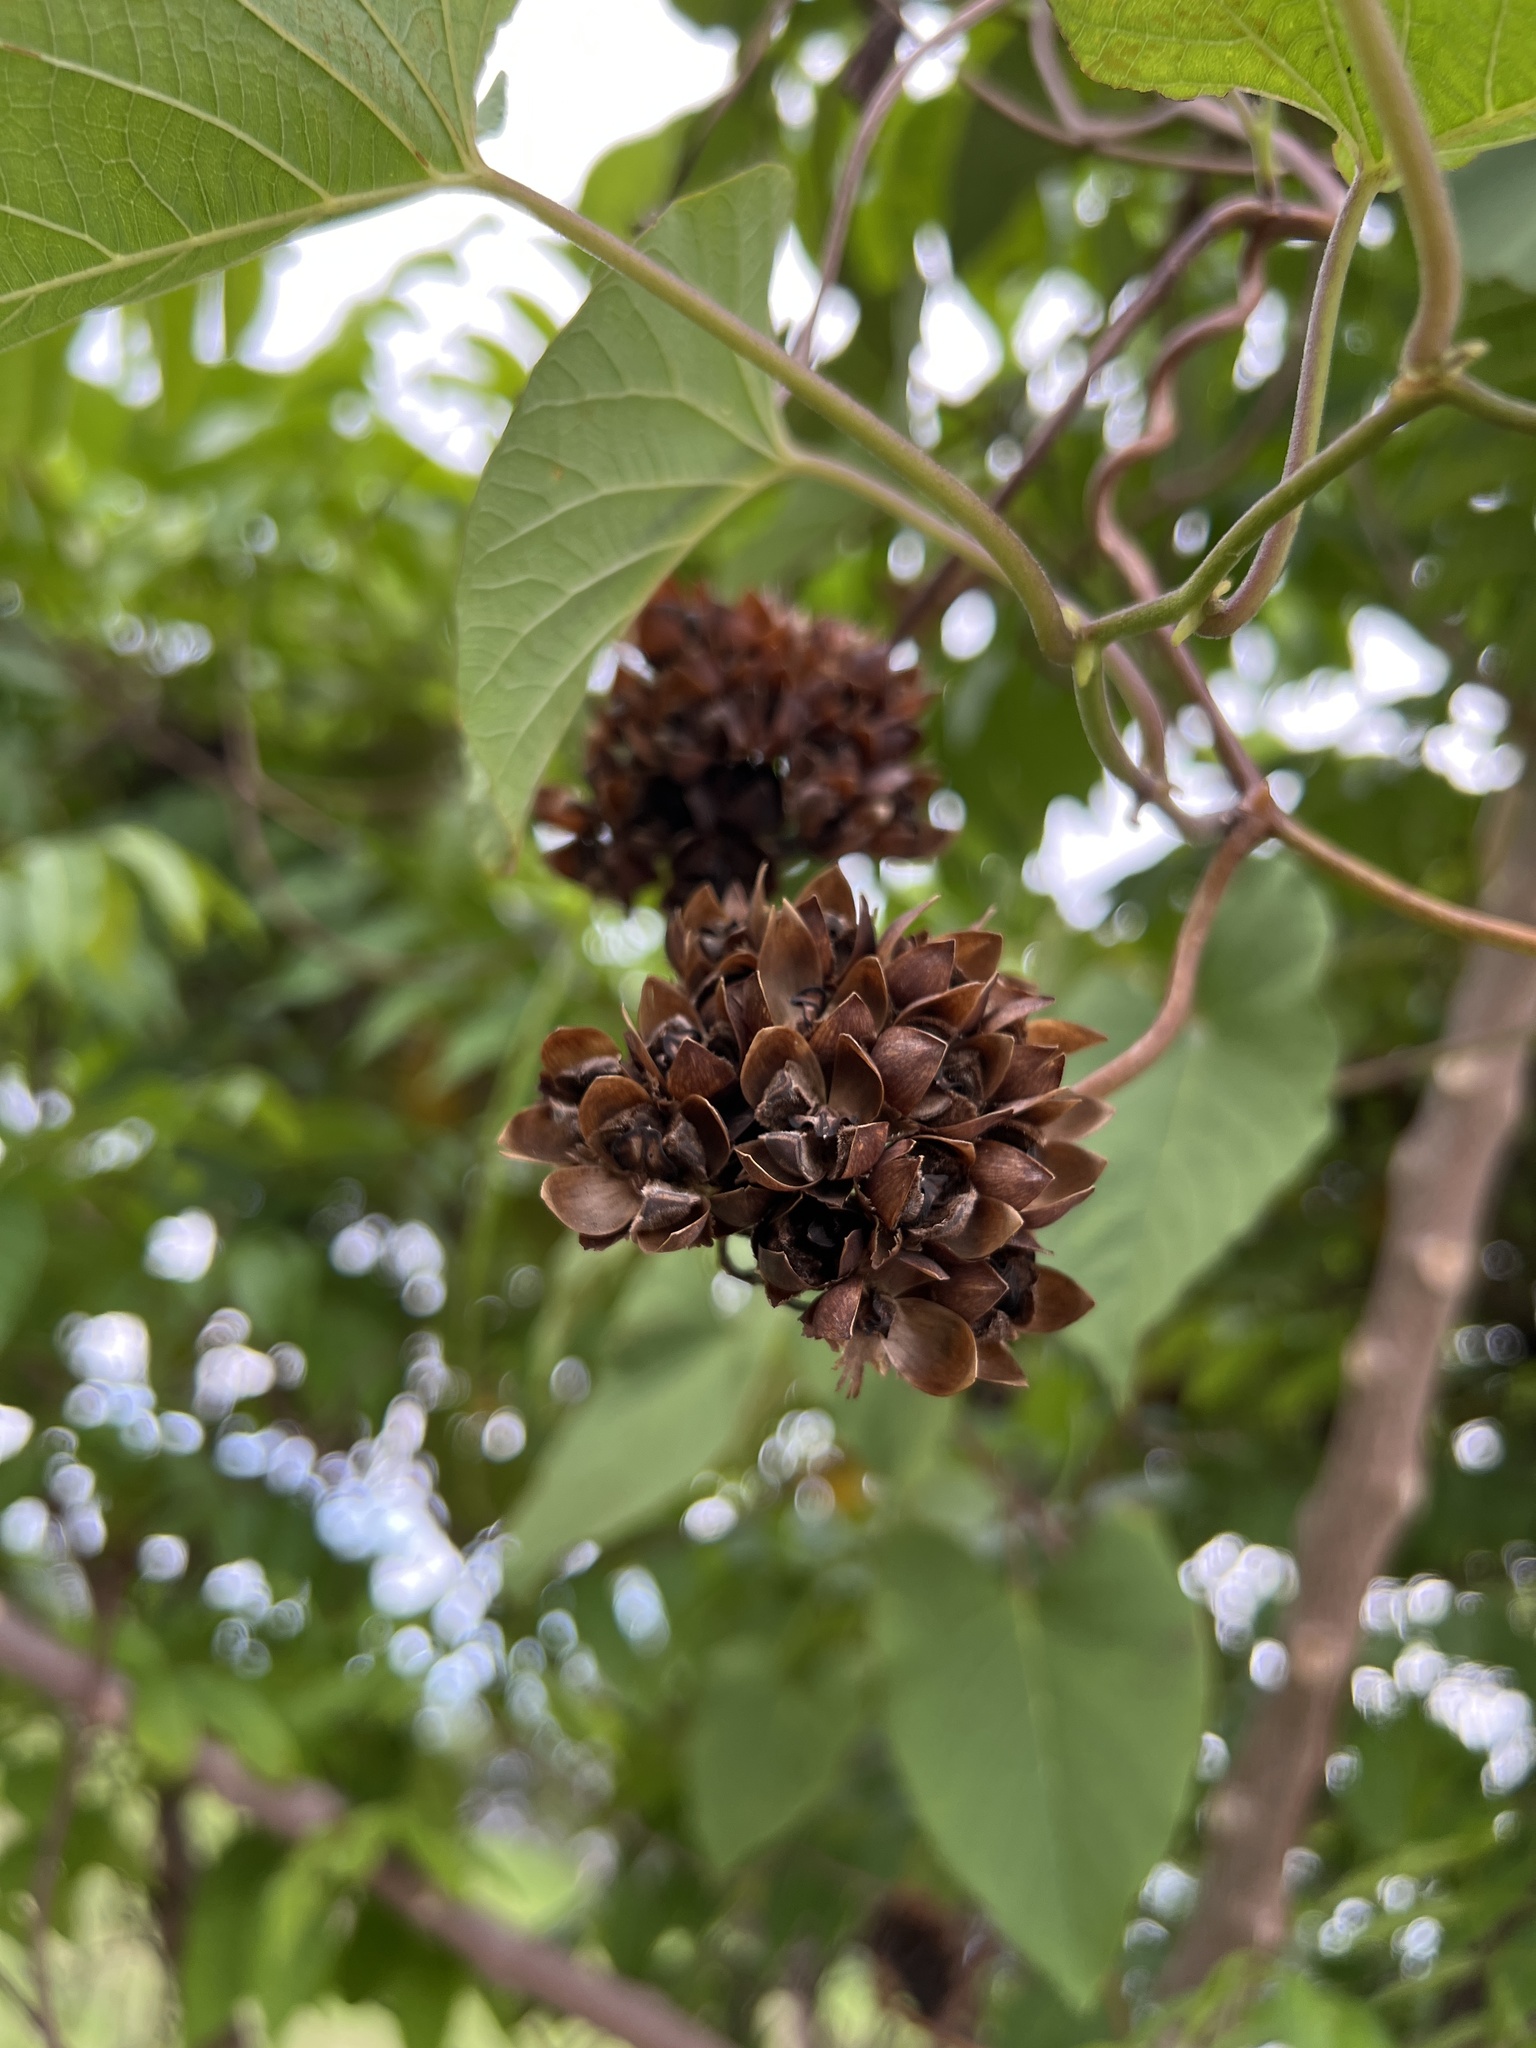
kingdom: Plantae
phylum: Tracheophyta
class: Magnoliopsida
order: Solanales
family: Convolvulaceae
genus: Camonea
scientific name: Camonea umbellata
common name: Hogvine
